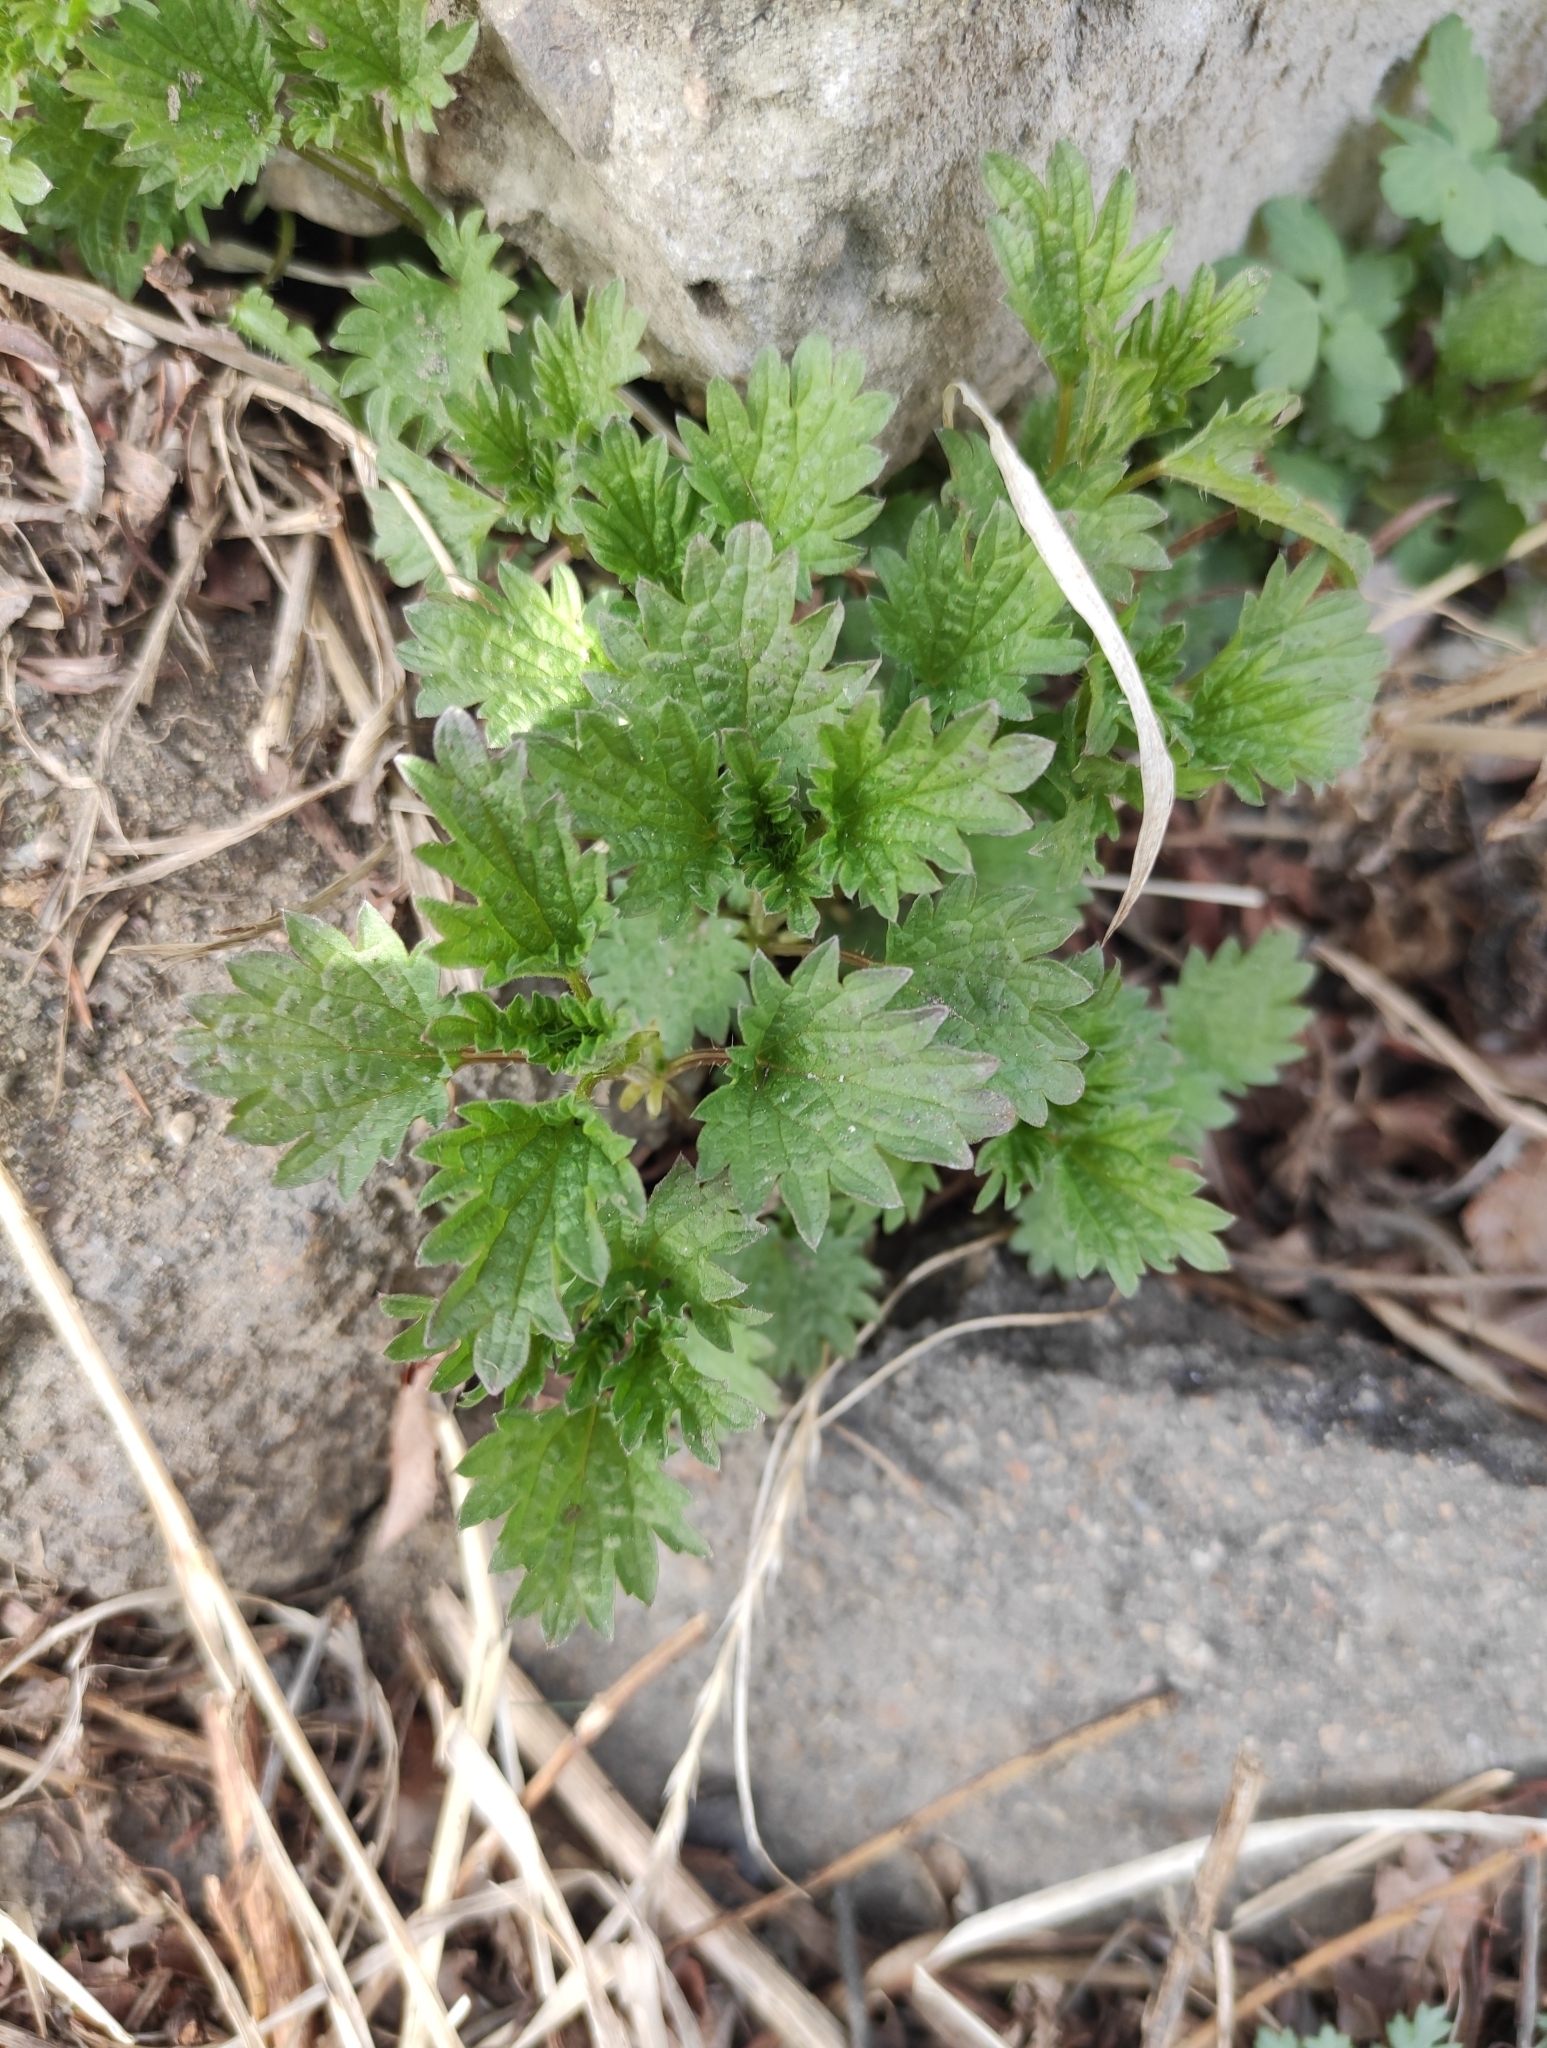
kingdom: Plantae
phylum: Tracheophyta
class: Magnoliopsida
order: Rosales
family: Urticaceae
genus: Urtica
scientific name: Urtica dioica
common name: Common nettle
